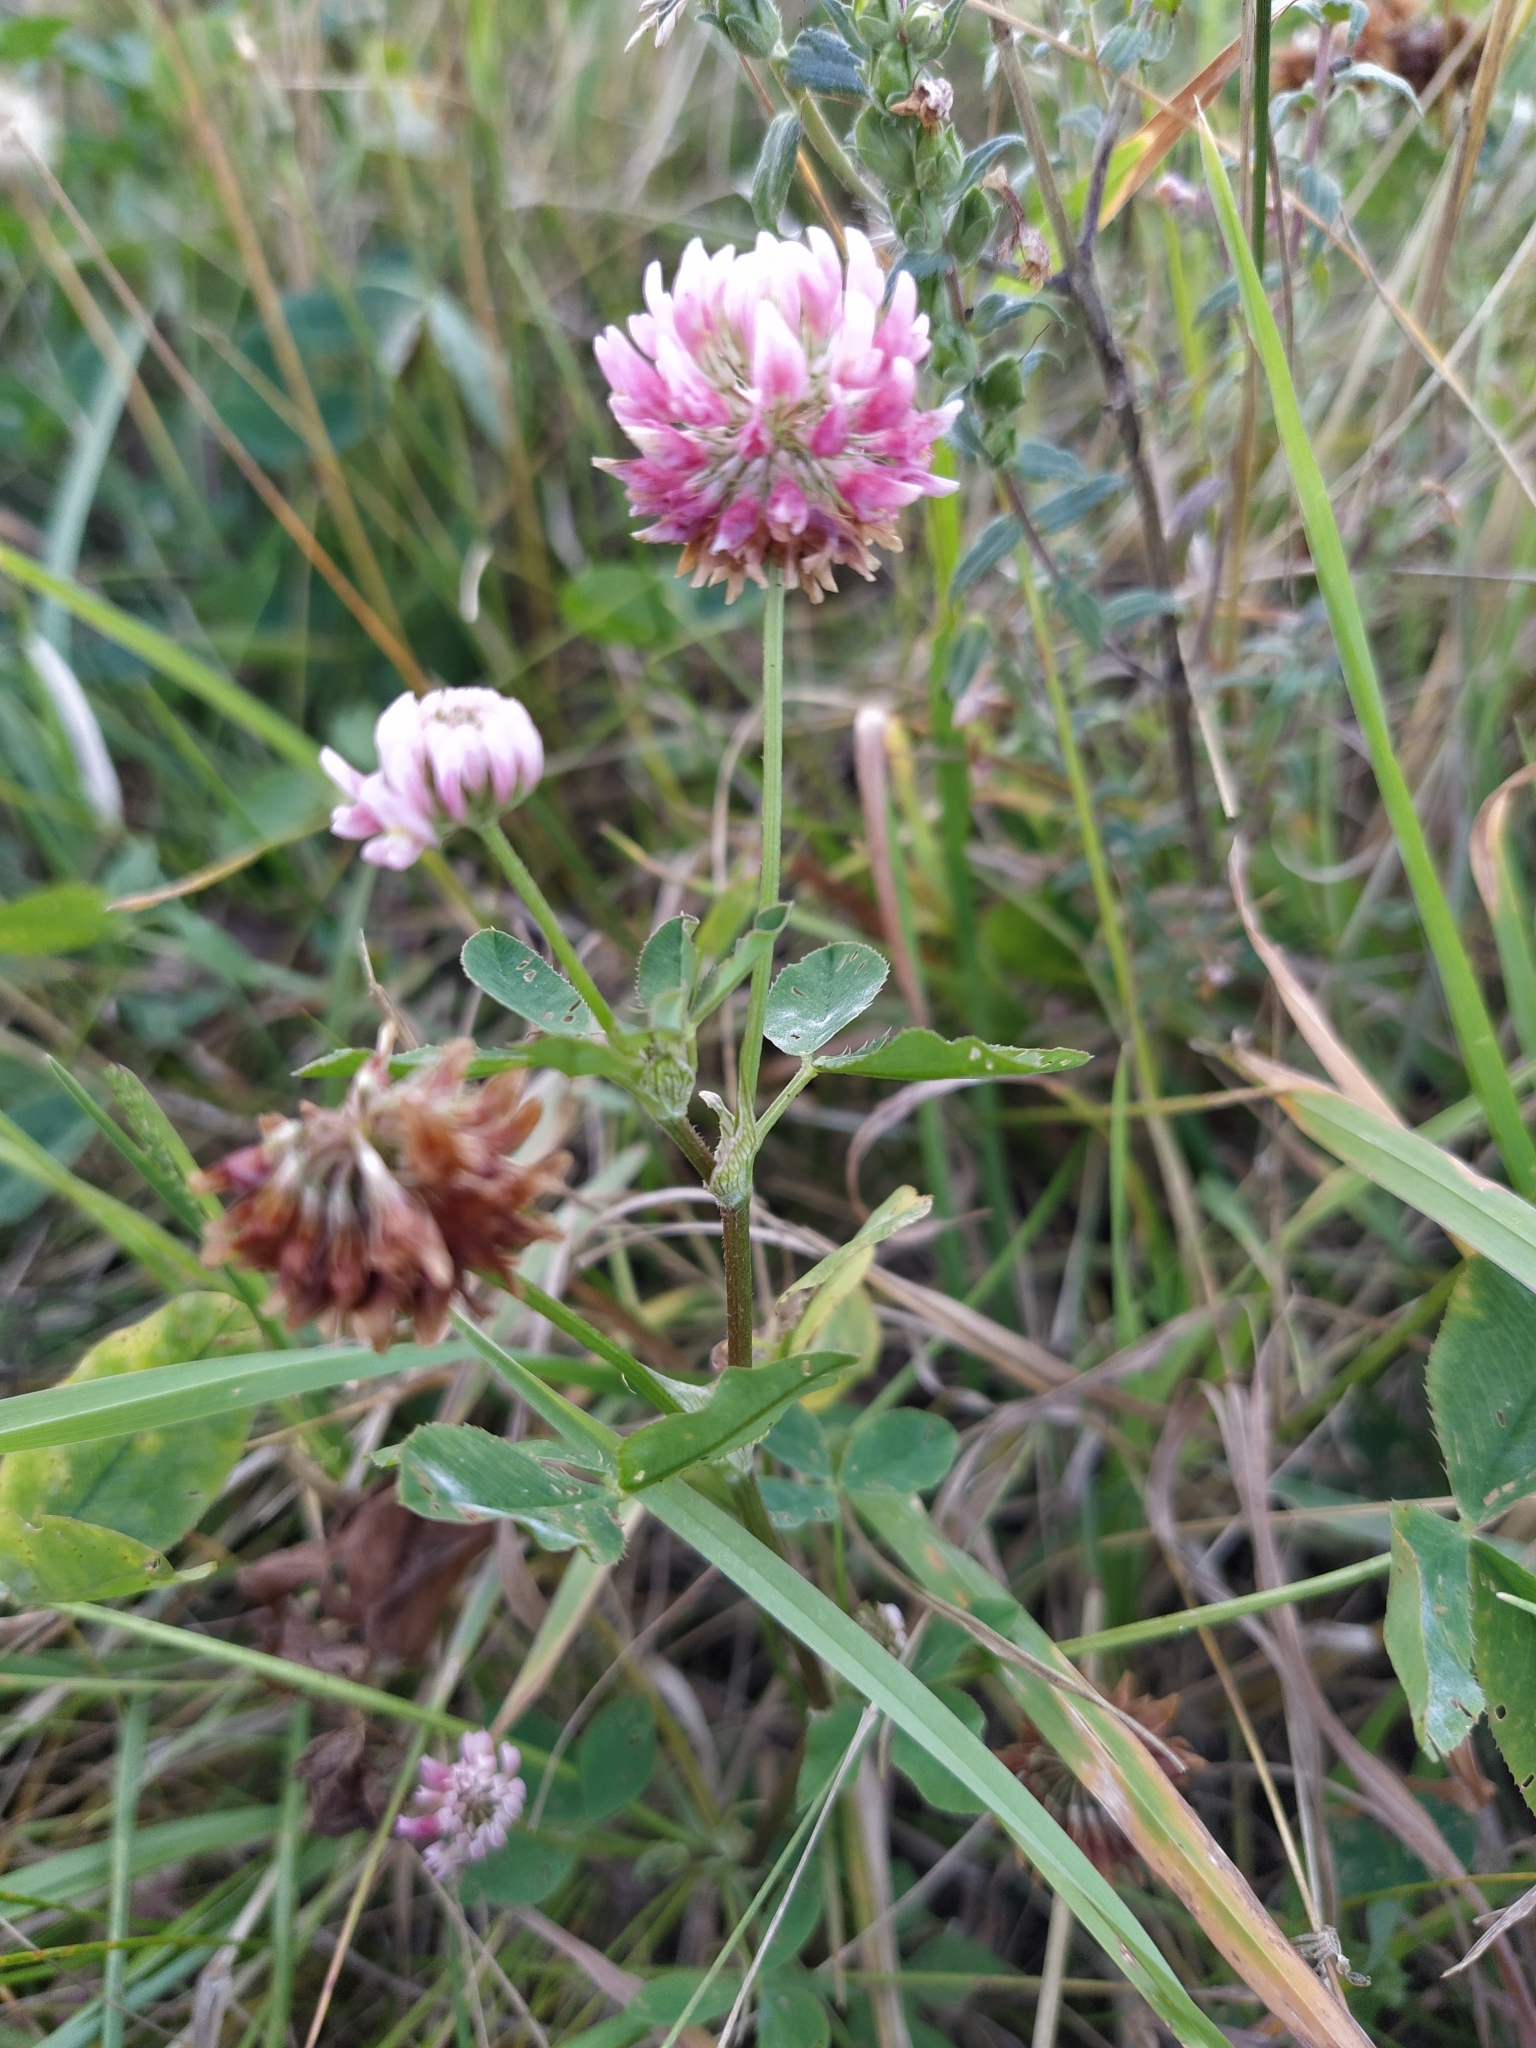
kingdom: Plantae
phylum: Tracheophyta
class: Magnoliopsida
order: Fabales
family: Fabaceae
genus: Trifolium
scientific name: Trifolium hybridum
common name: Alsike clover
